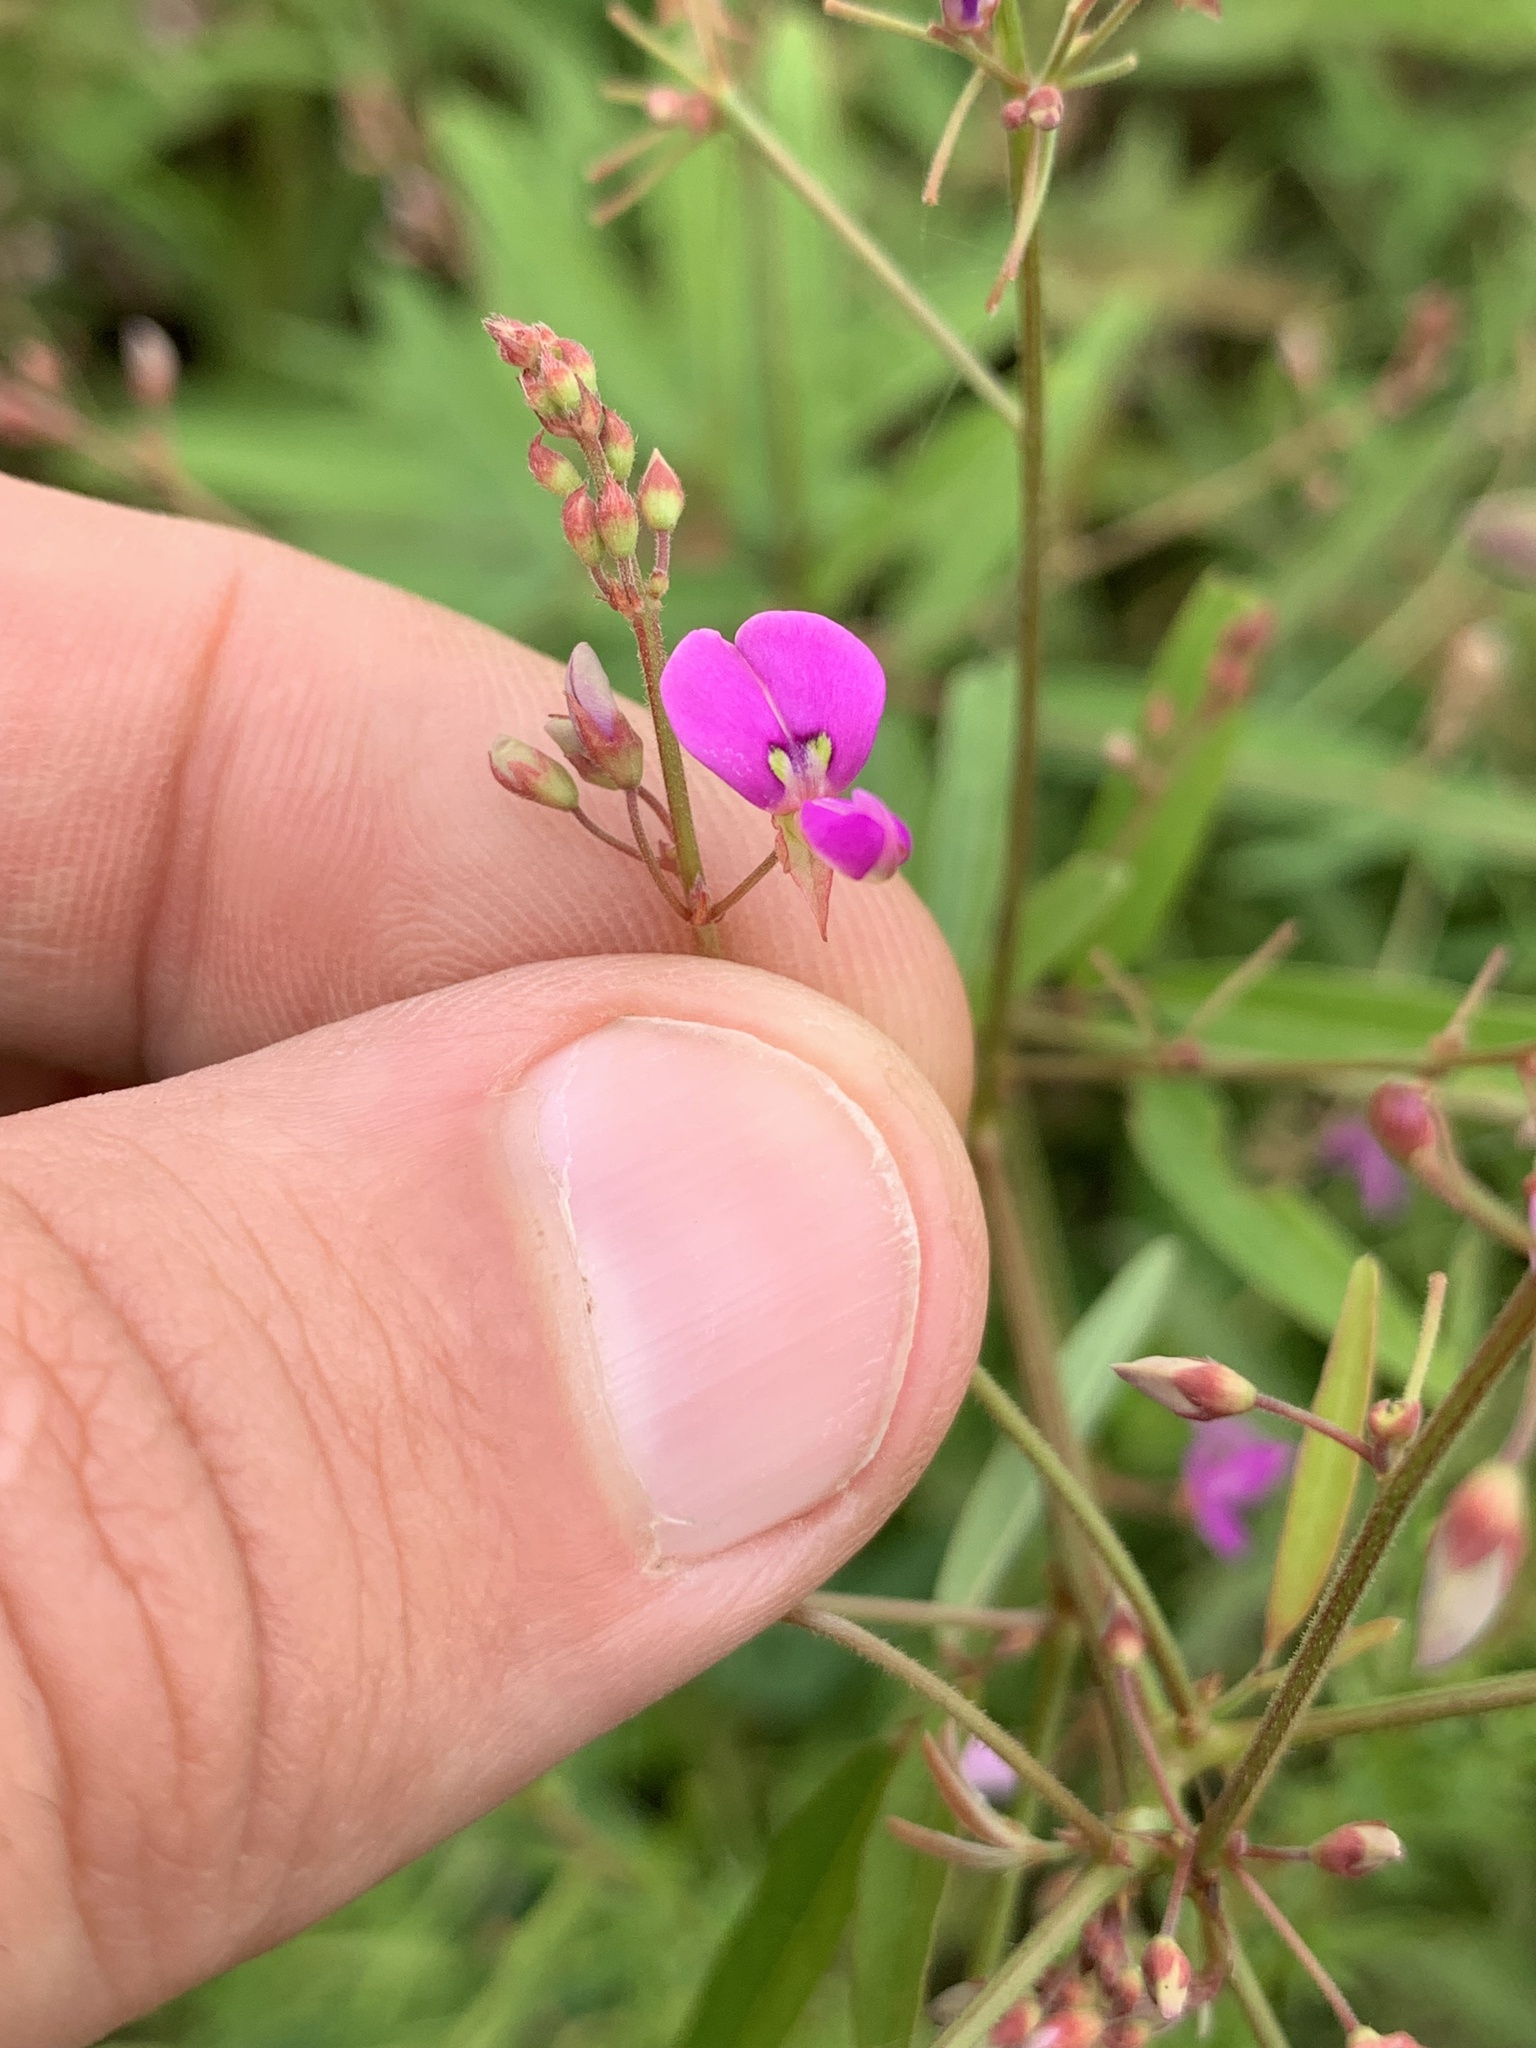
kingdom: Plantae
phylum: Tracheophyta
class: Magnoliopsida
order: Fabales
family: Fabaceae
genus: Desmodium
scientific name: Desmodium paniculatum
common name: Panicled tick-clover
